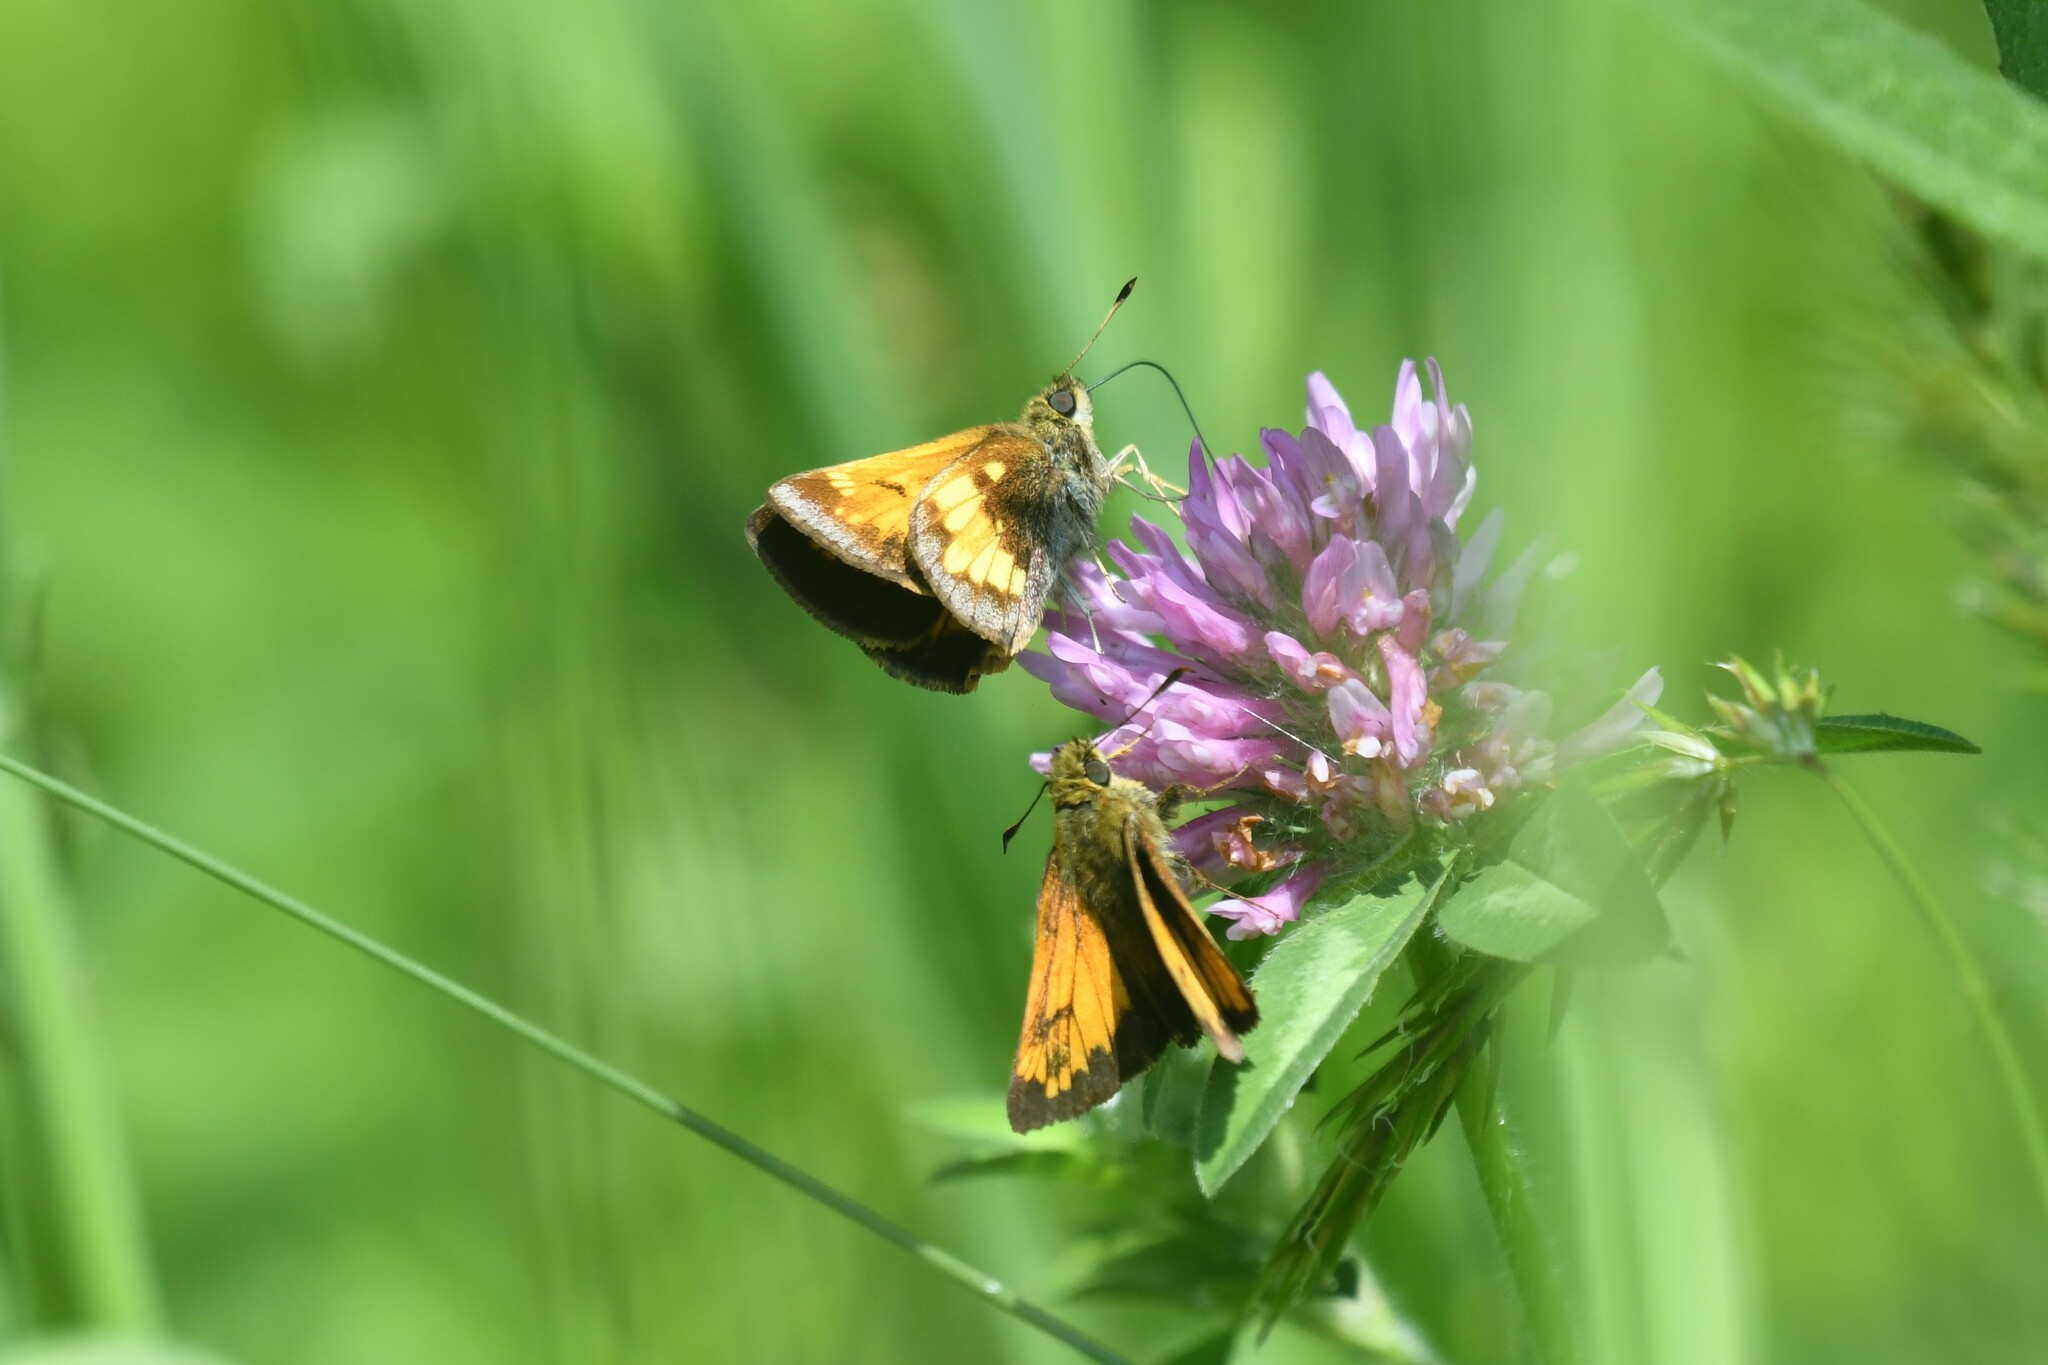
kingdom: Animalia
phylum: Arthropoda
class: Insecta
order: Lepidoptera
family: Hesperiidae
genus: Lon
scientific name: Lon hobomok
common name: Hobomok skipper
